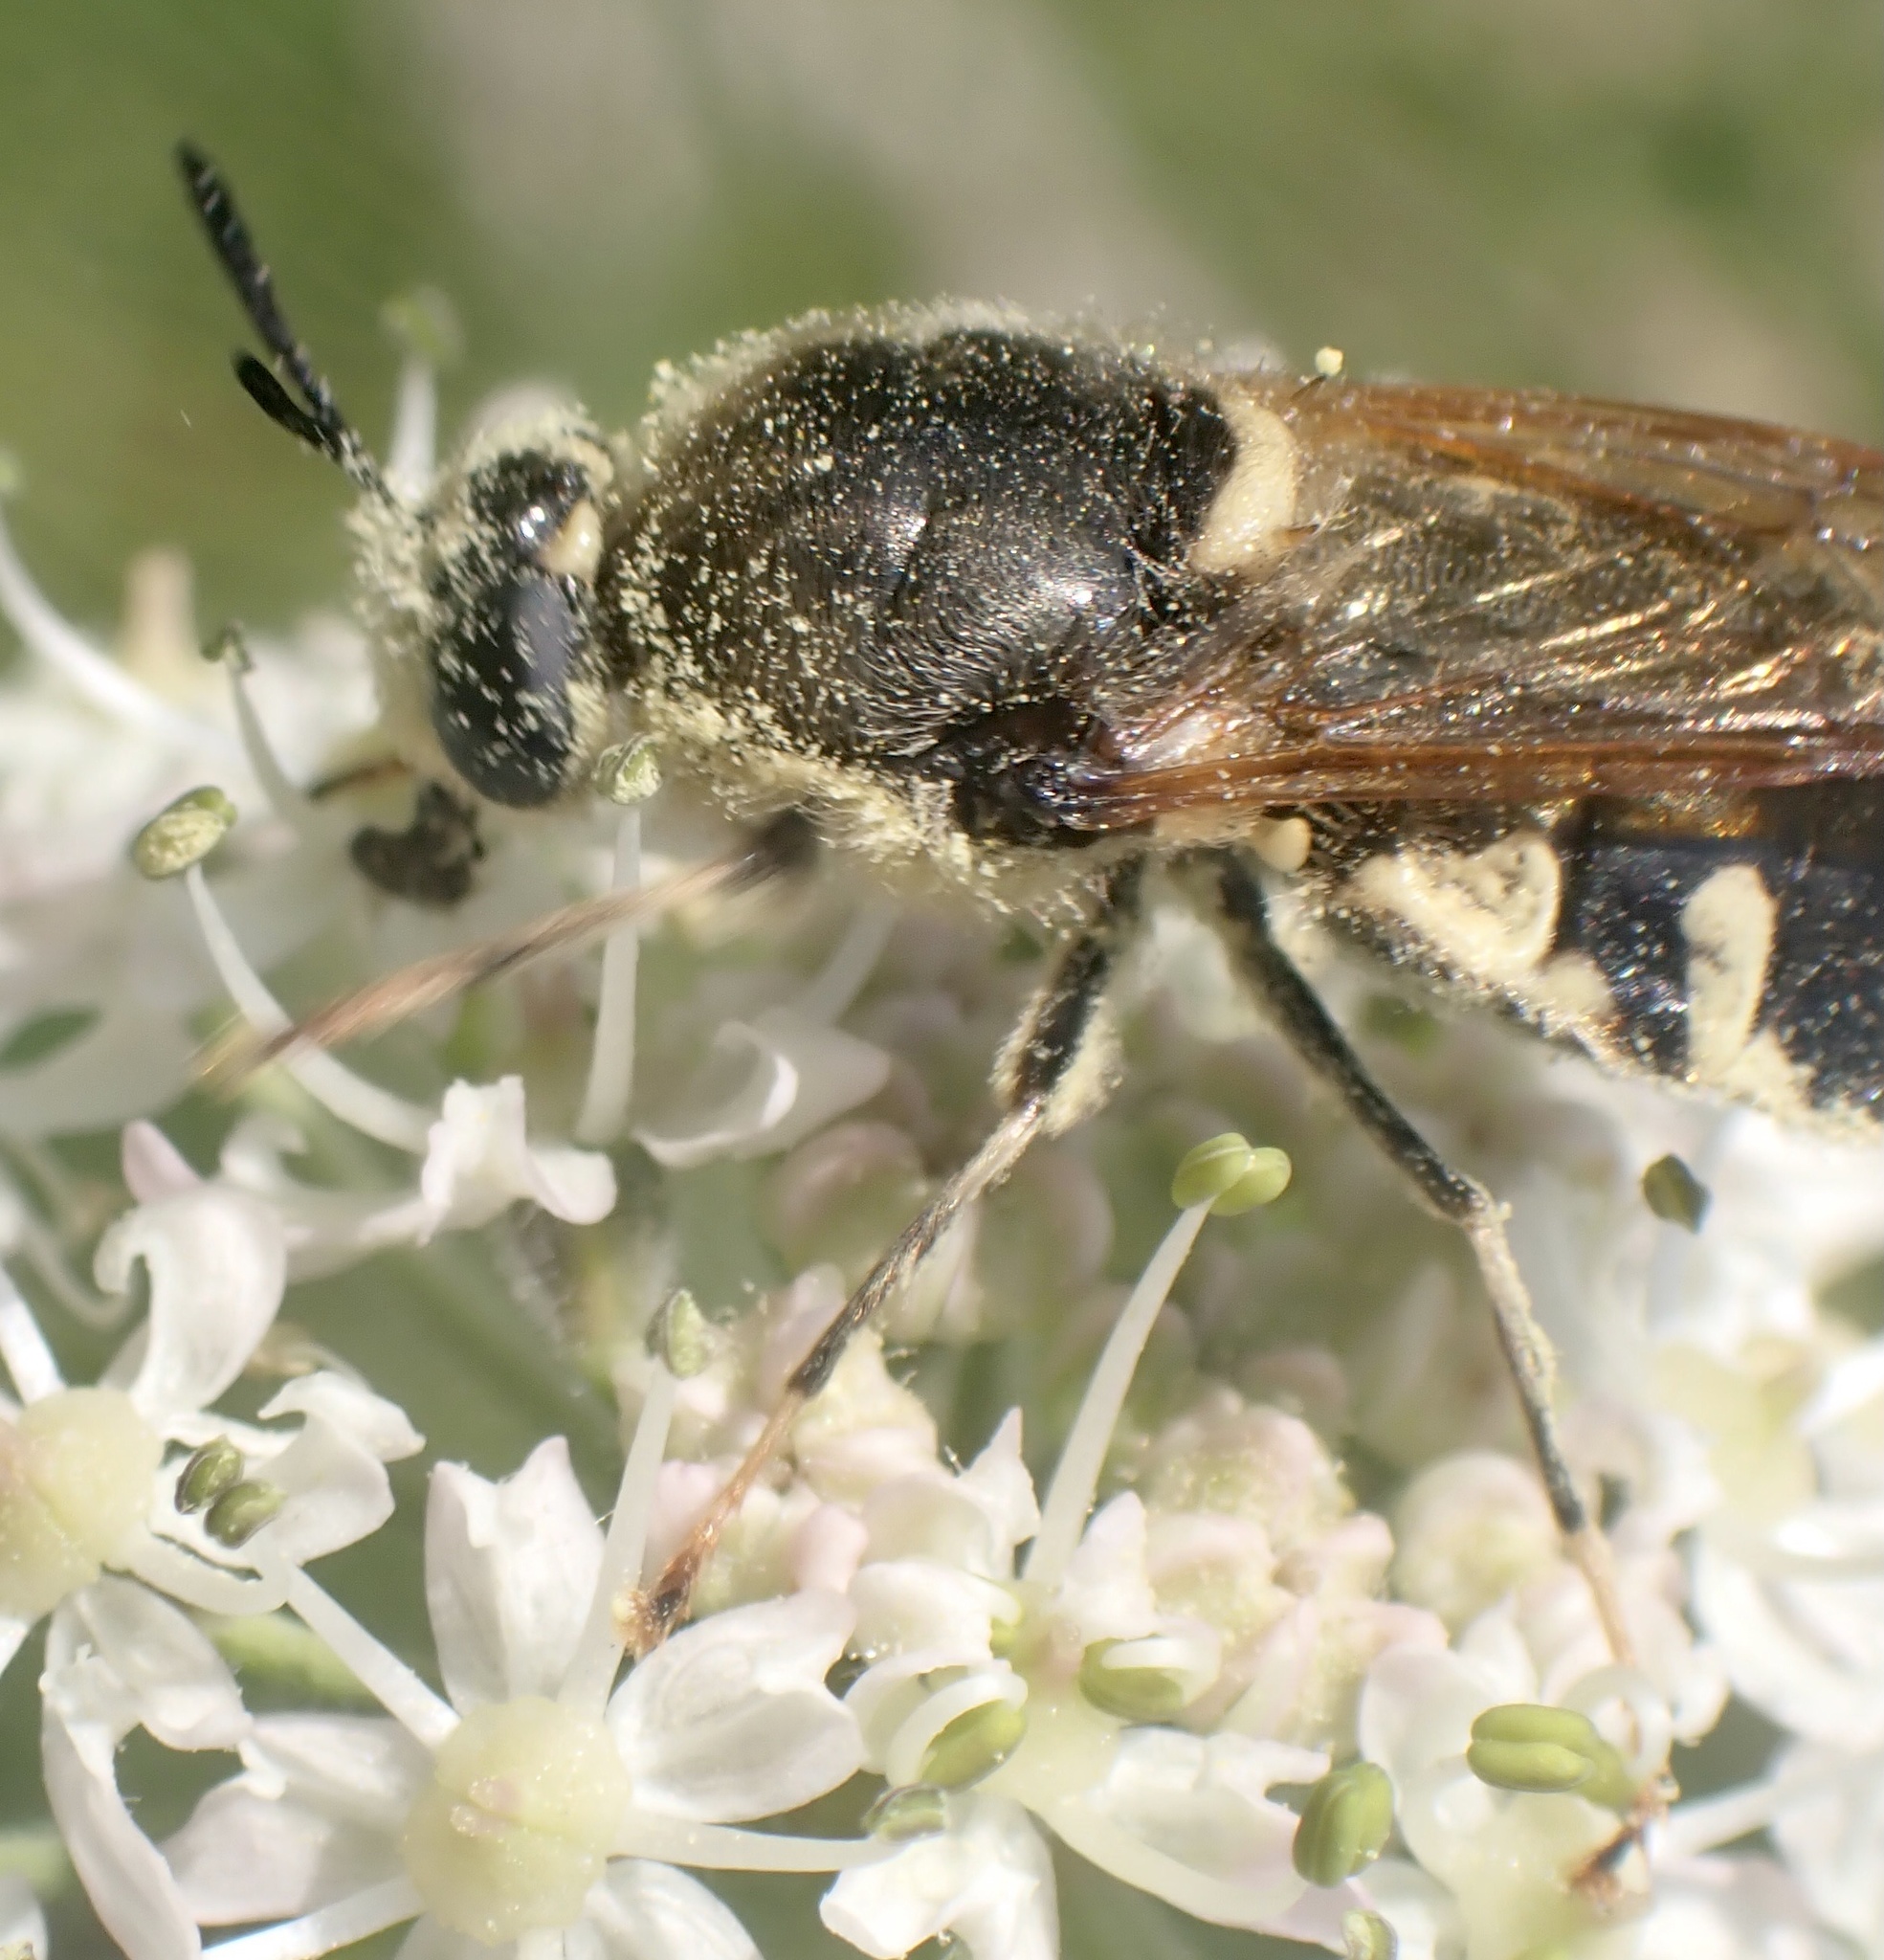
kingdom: Animalia
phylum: Arthropoda
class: Insecta
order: Diptera
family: Stratiomyidae
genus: Stratiomys
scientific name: Stratiomys singularior
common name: Flecked general
